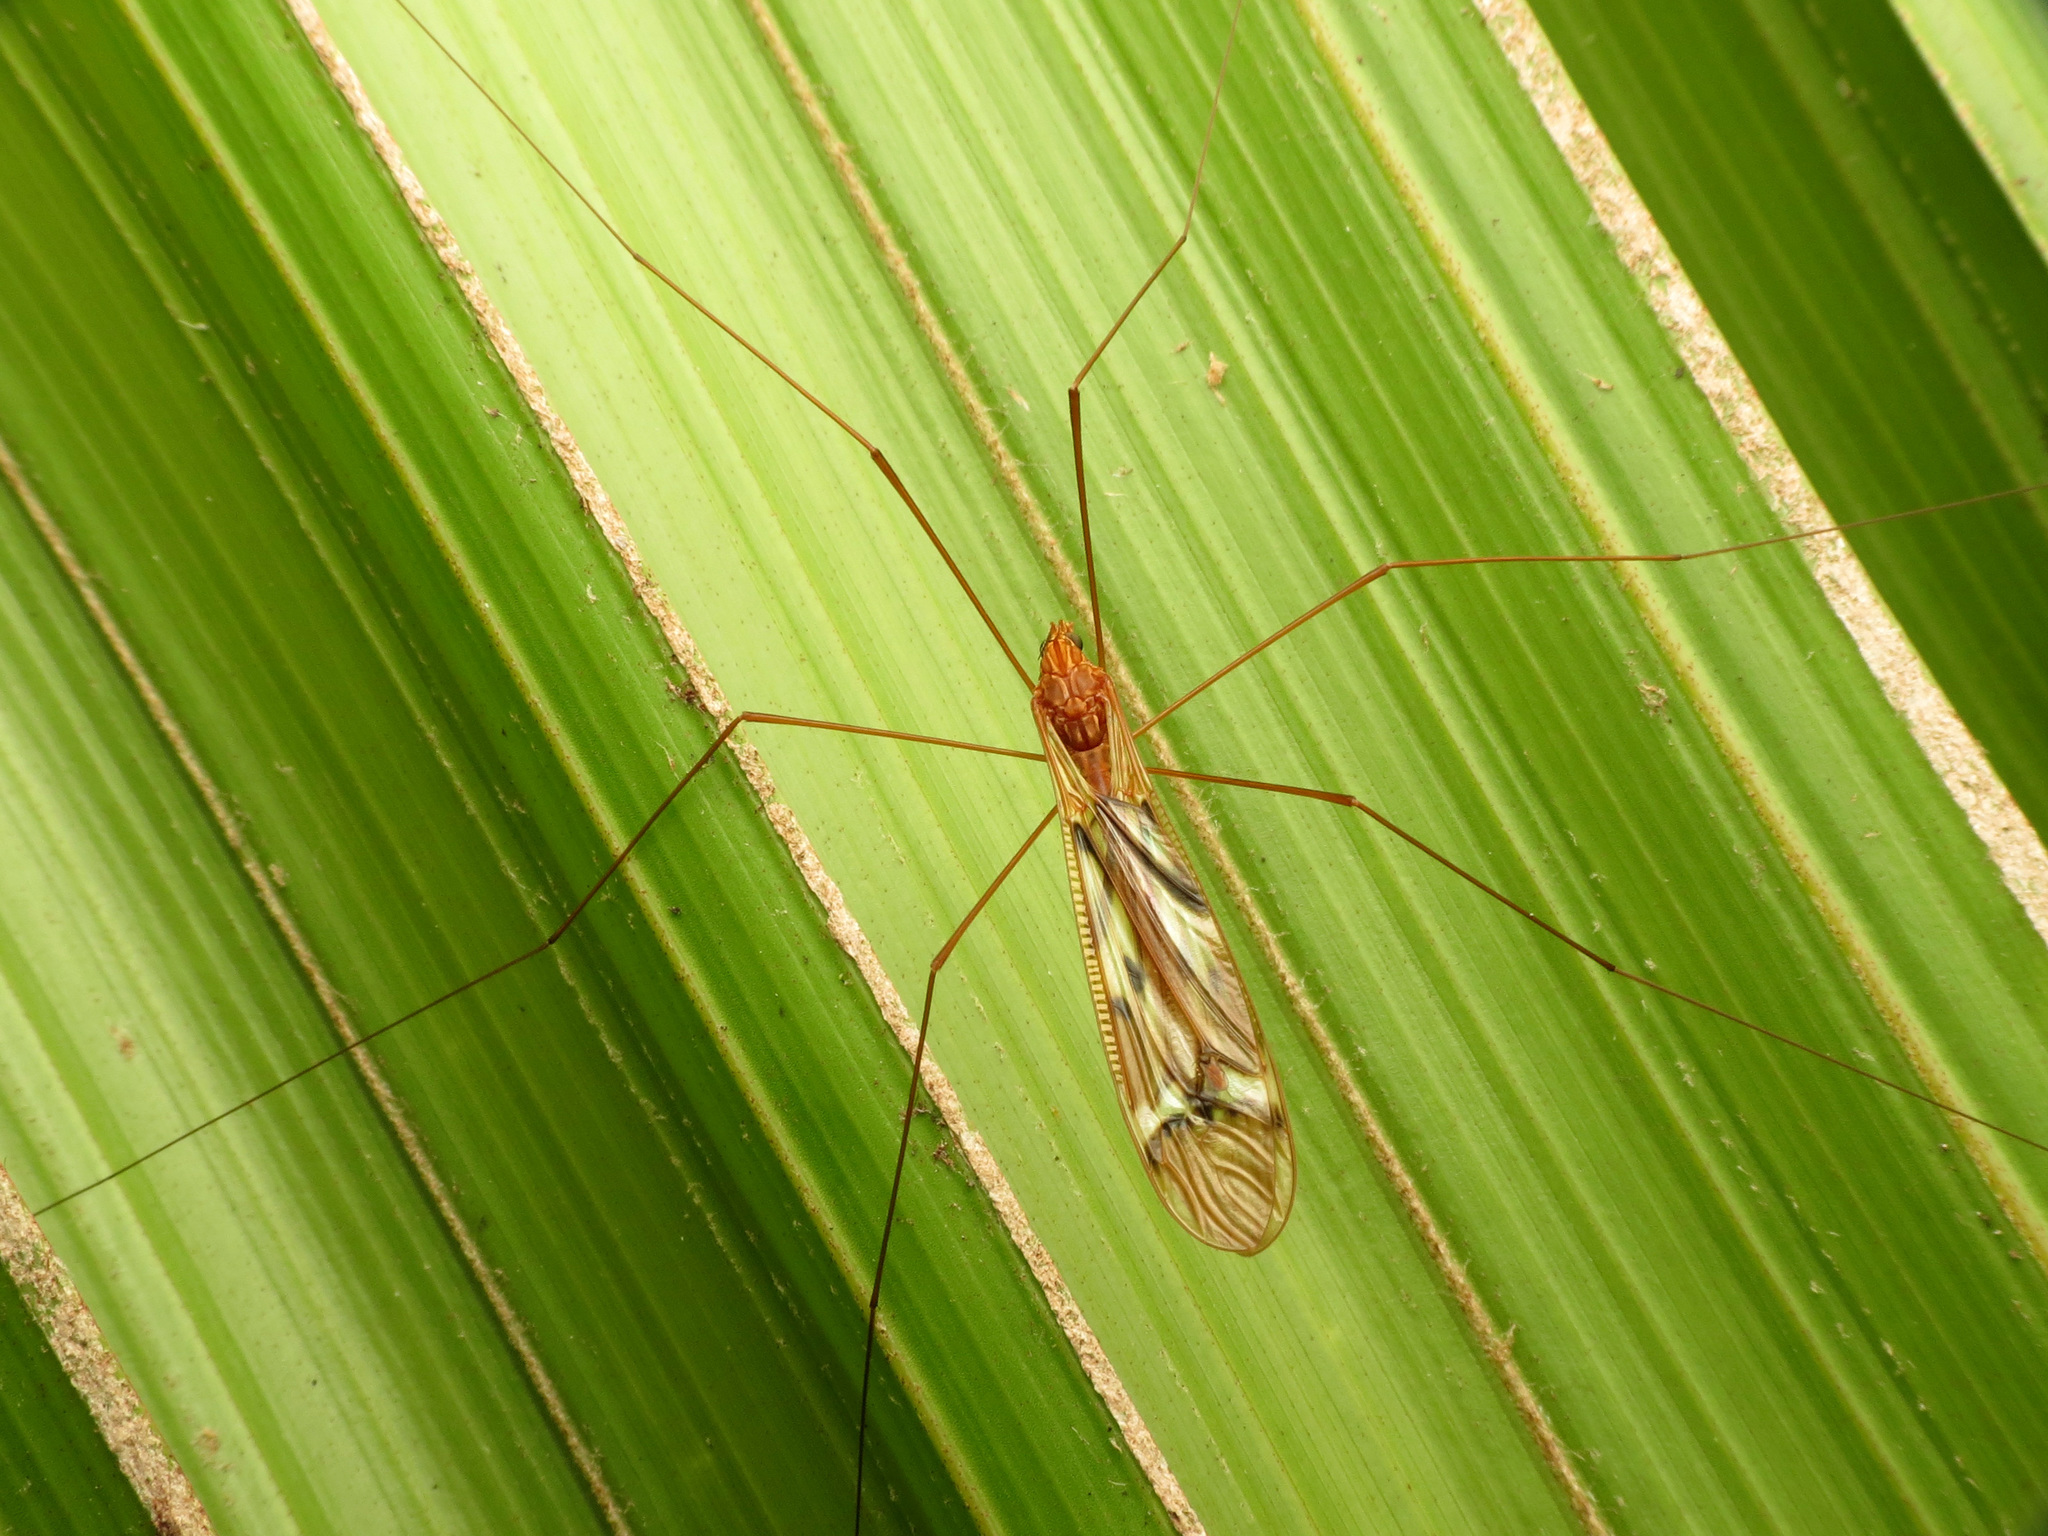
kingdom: Animalia
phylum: Arthropoda
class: Insecta
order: Diptera
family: Tipulidae
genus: Zelandotipula
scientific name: Zelandotipula fulva
